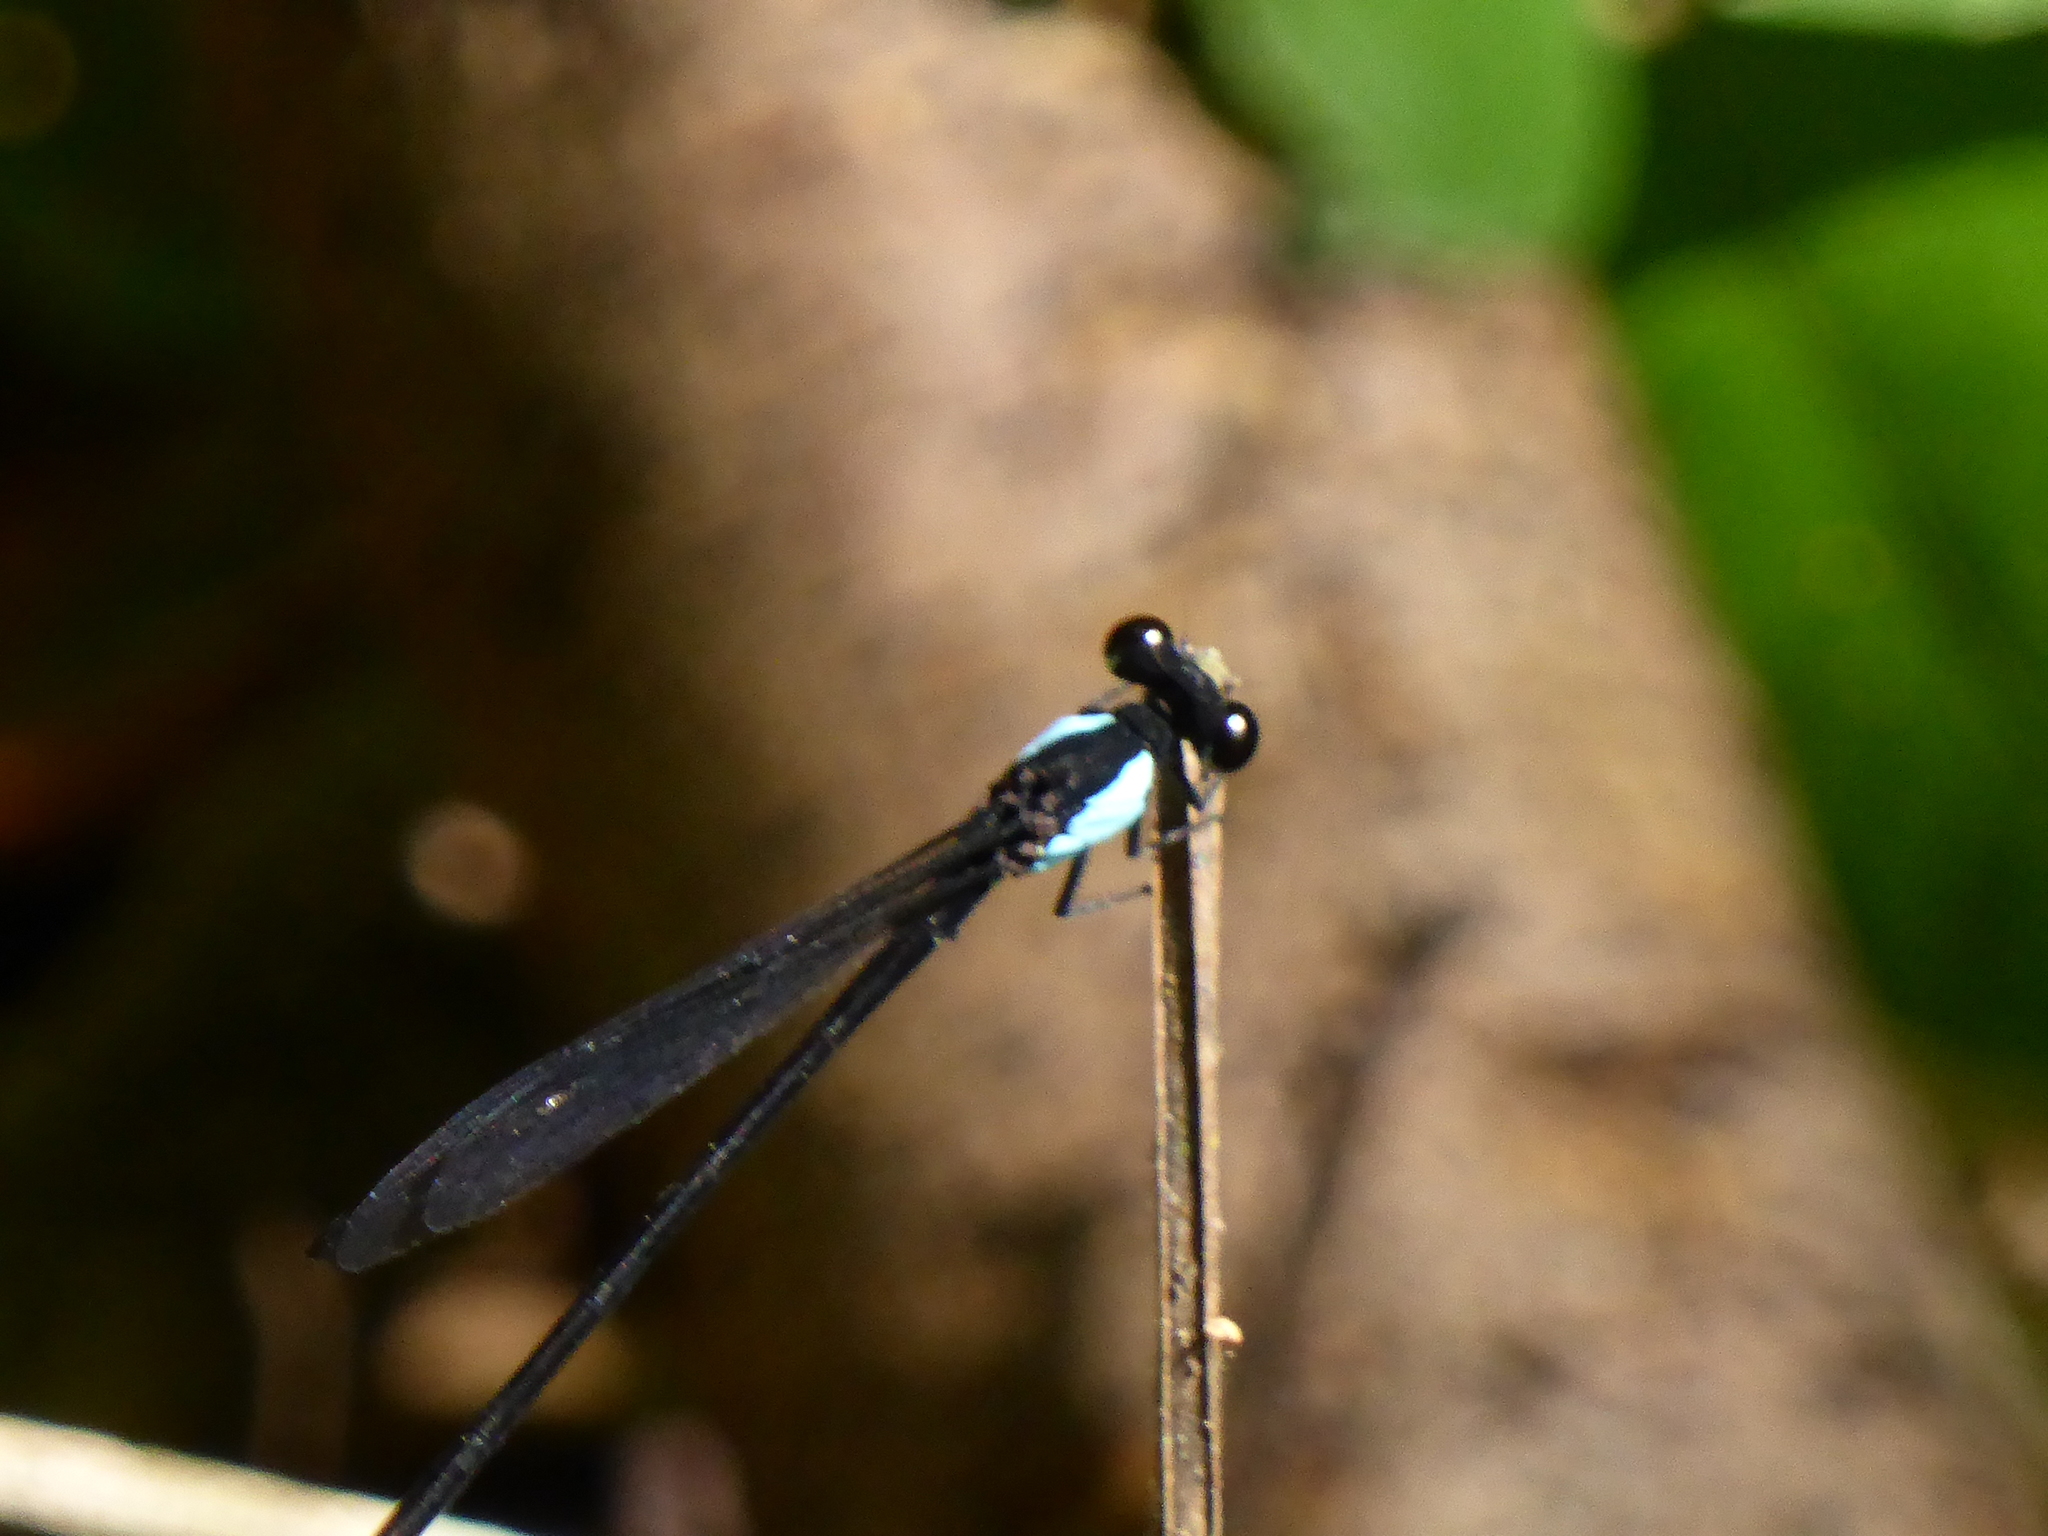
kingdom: Animalia
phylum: Arthropoda
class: Insecta
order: Odonata
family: Euphaeidae
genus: Euphaea
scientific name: Euphaea impar
